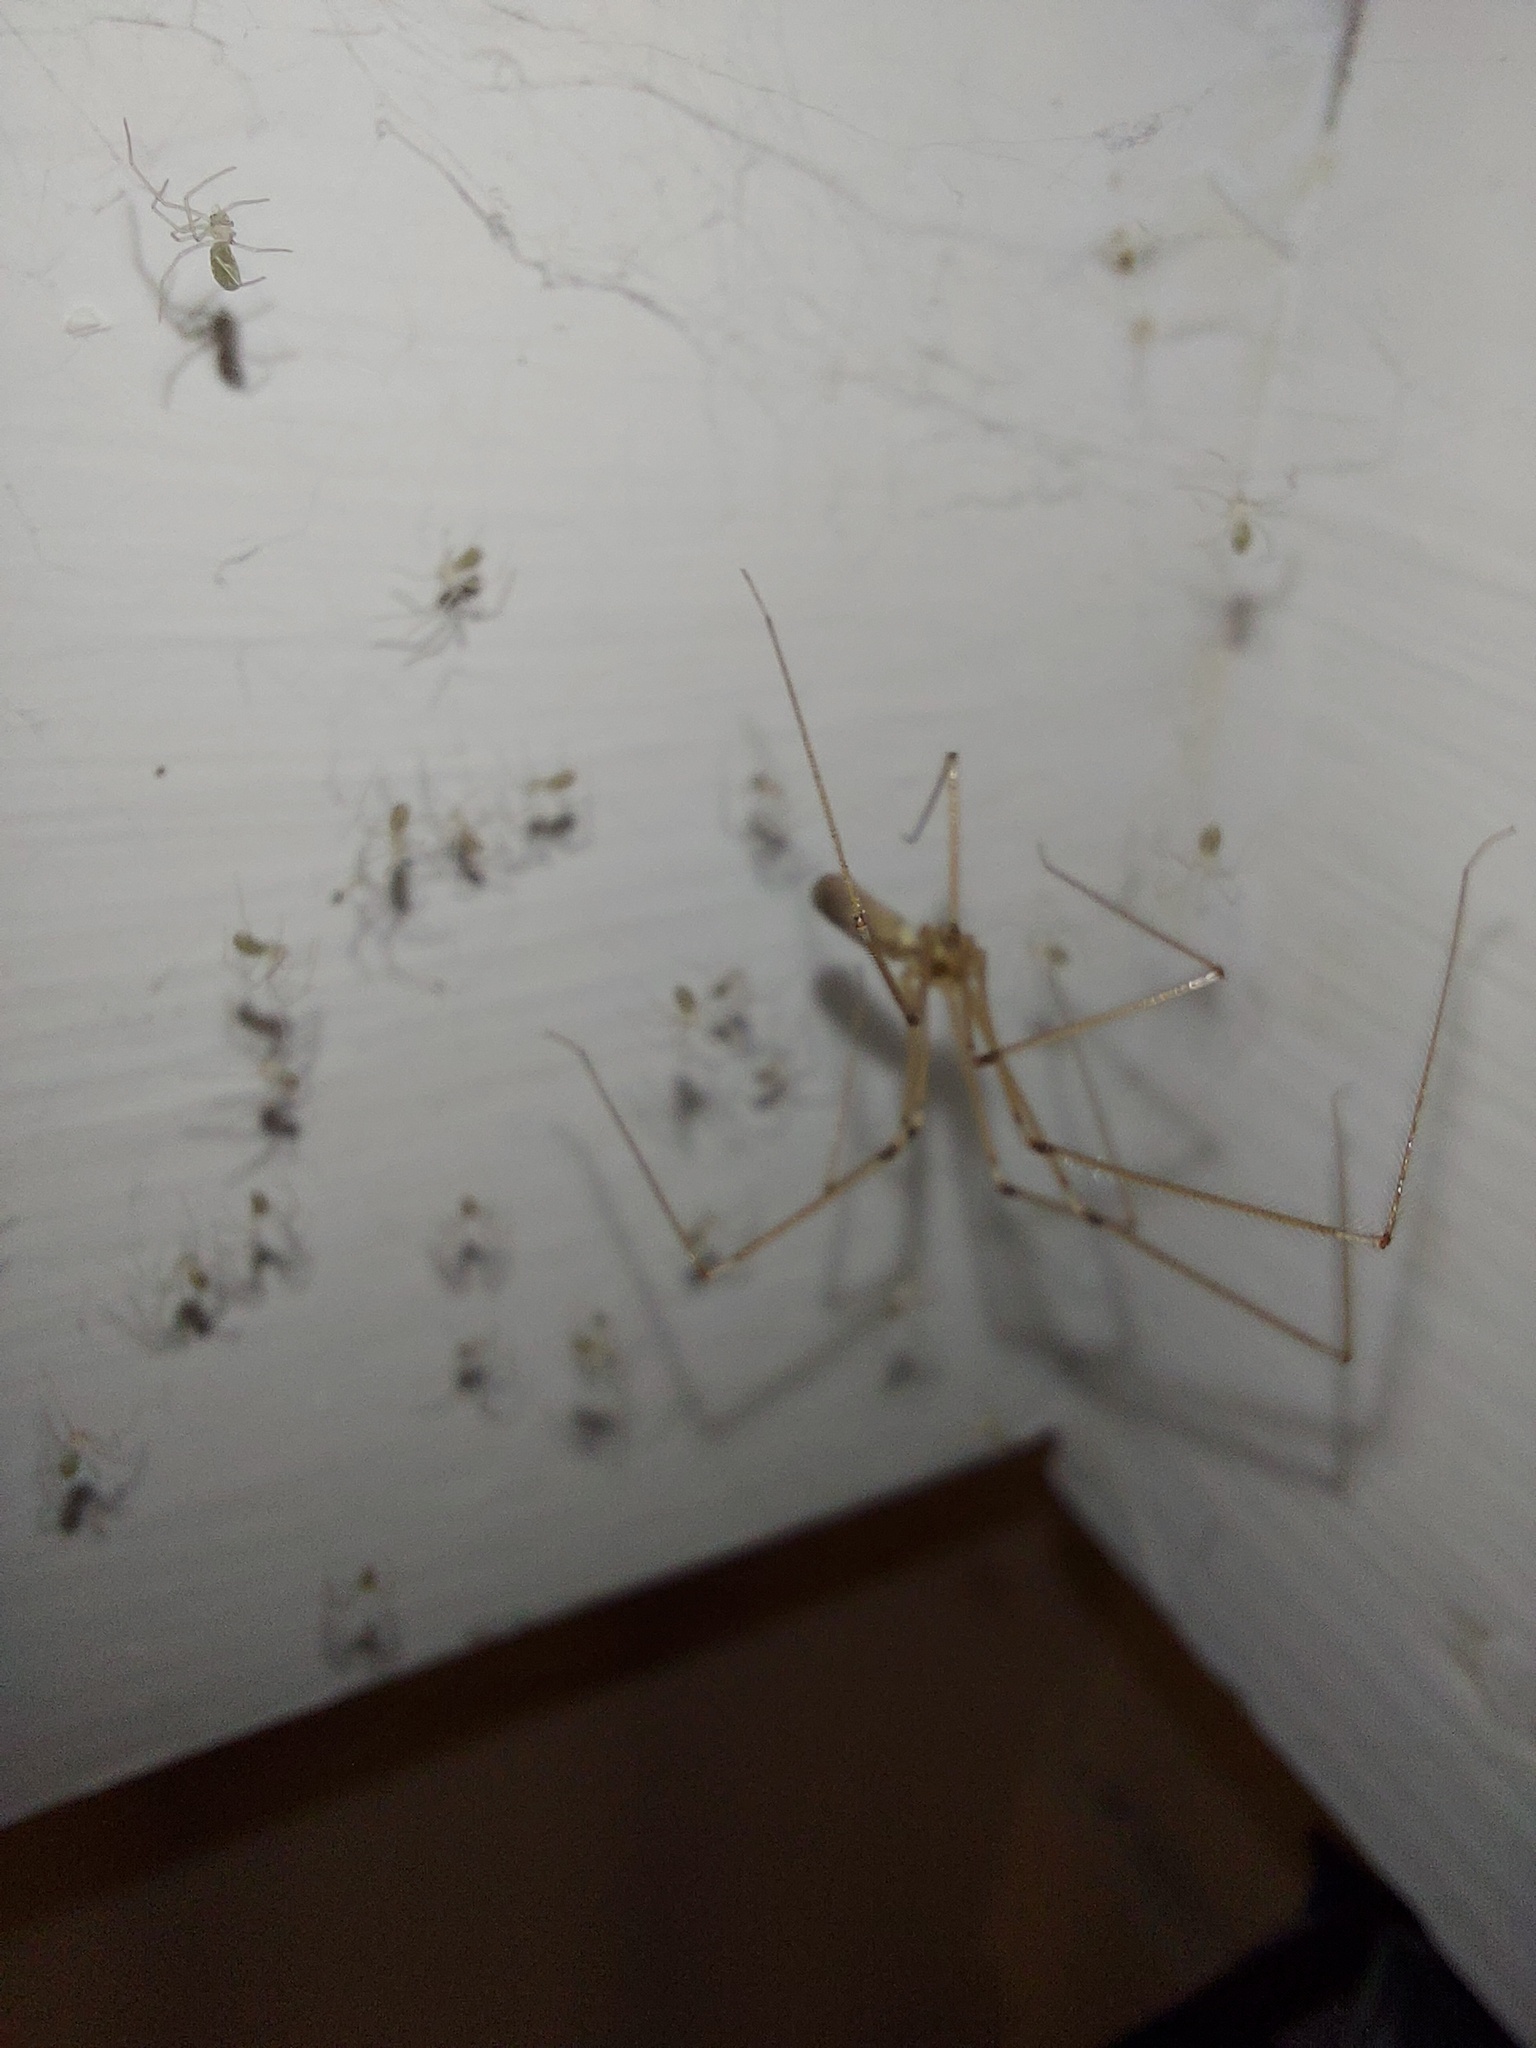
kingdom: Animalia
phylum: Arthropoda
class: Arachnida
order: Araneae
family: Pholcidae
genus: Pholcus
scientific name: Pholcus phalangioides
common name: Longbodied cellar spider
